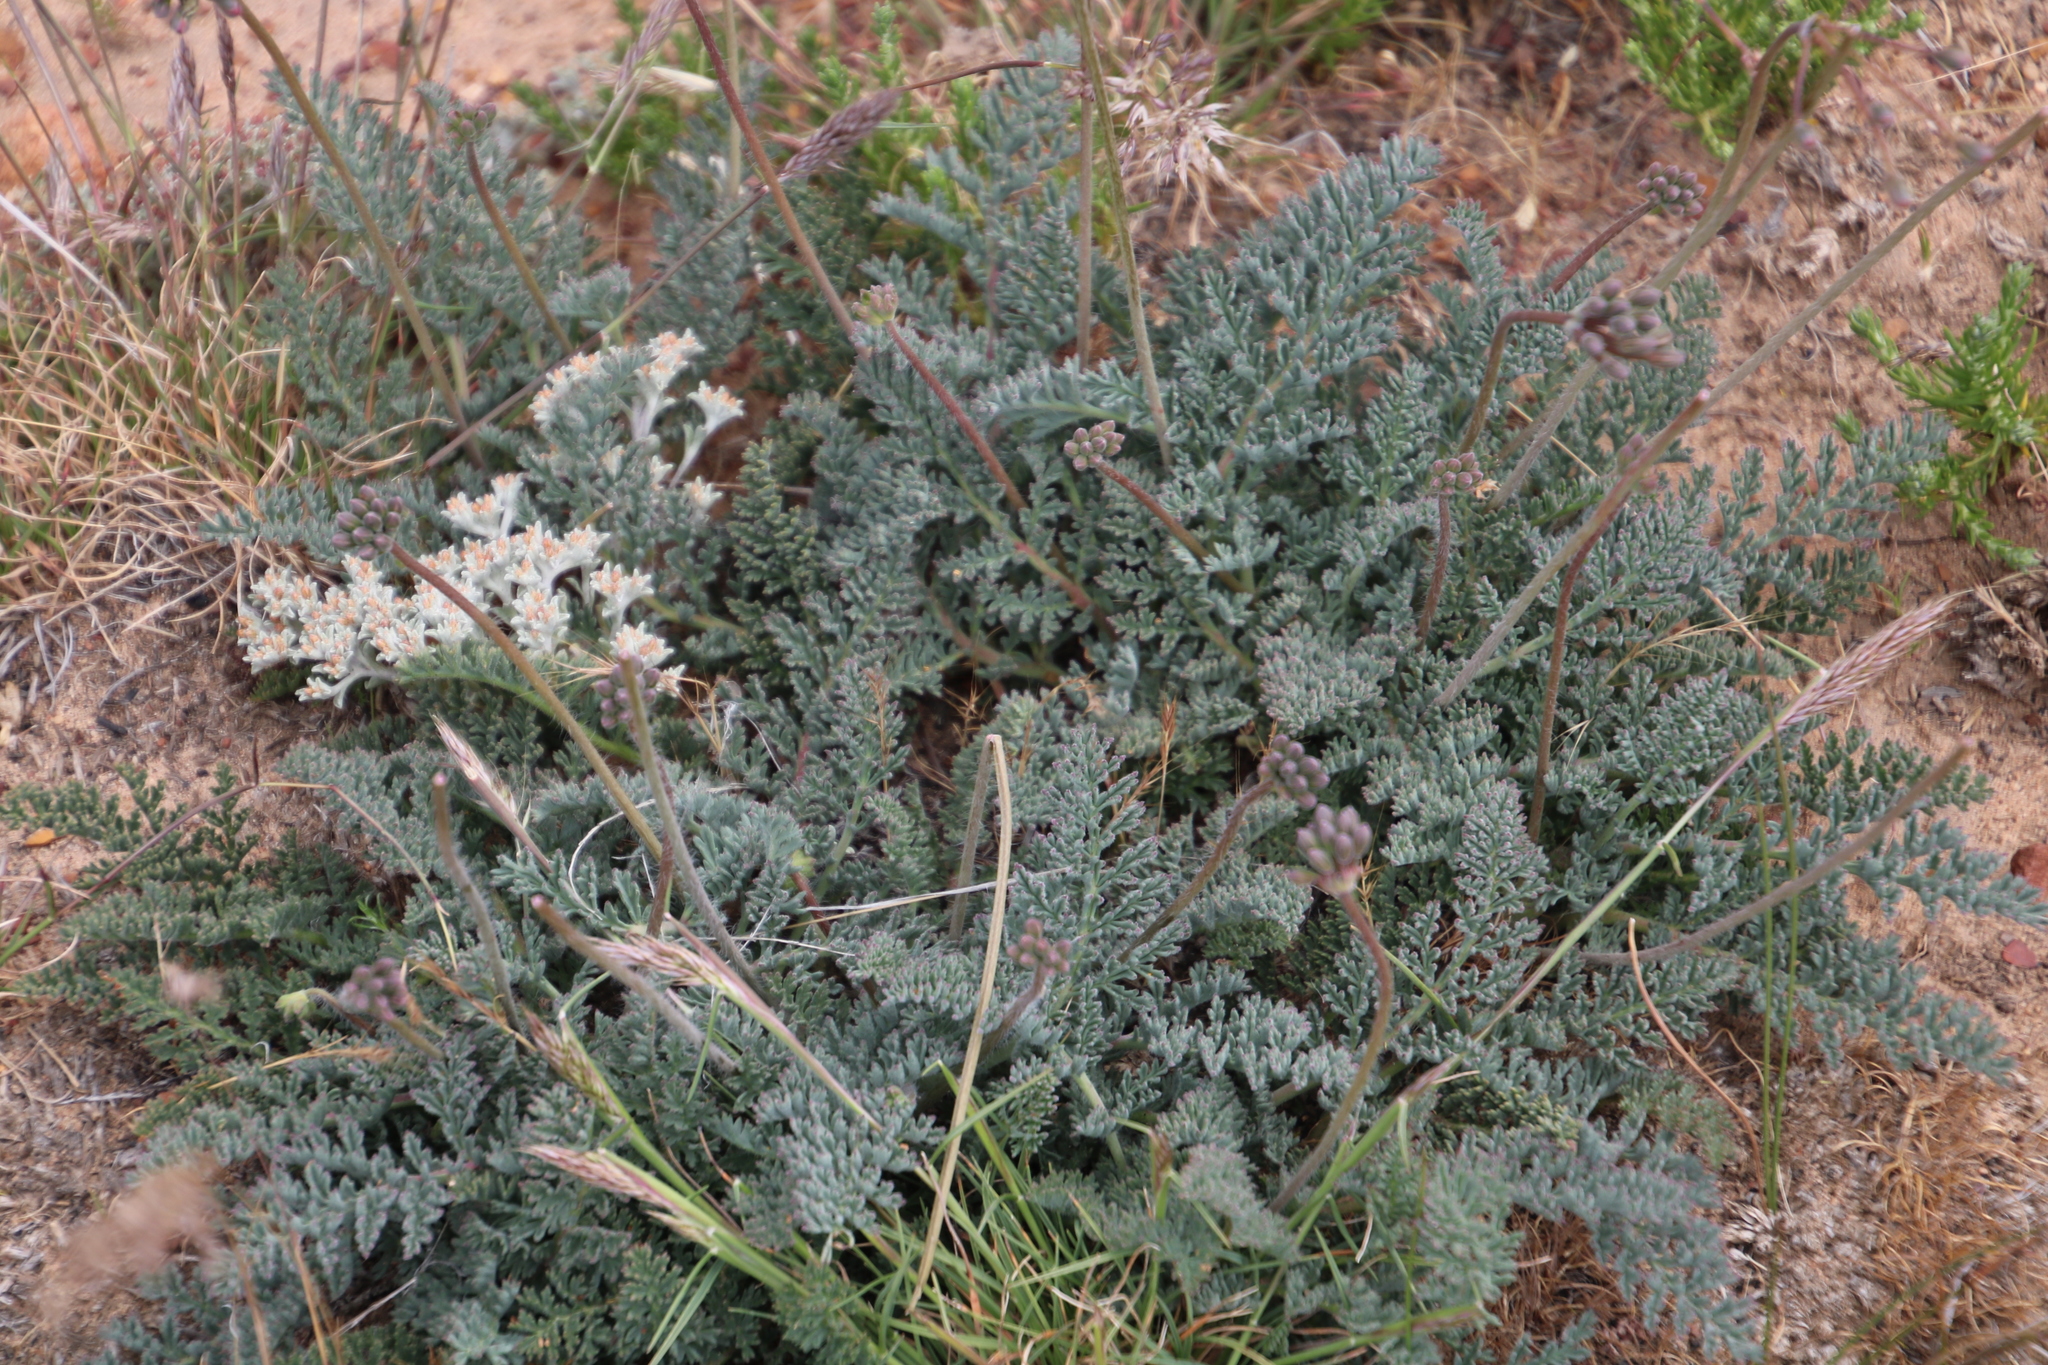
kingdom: Plantae
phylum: Tracheophyta
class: Magnoliopsida
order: Geraniales
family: Geraniaceae
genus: Pelargonium
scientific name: Pelargonium triste
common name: Night-scent pelargonium
